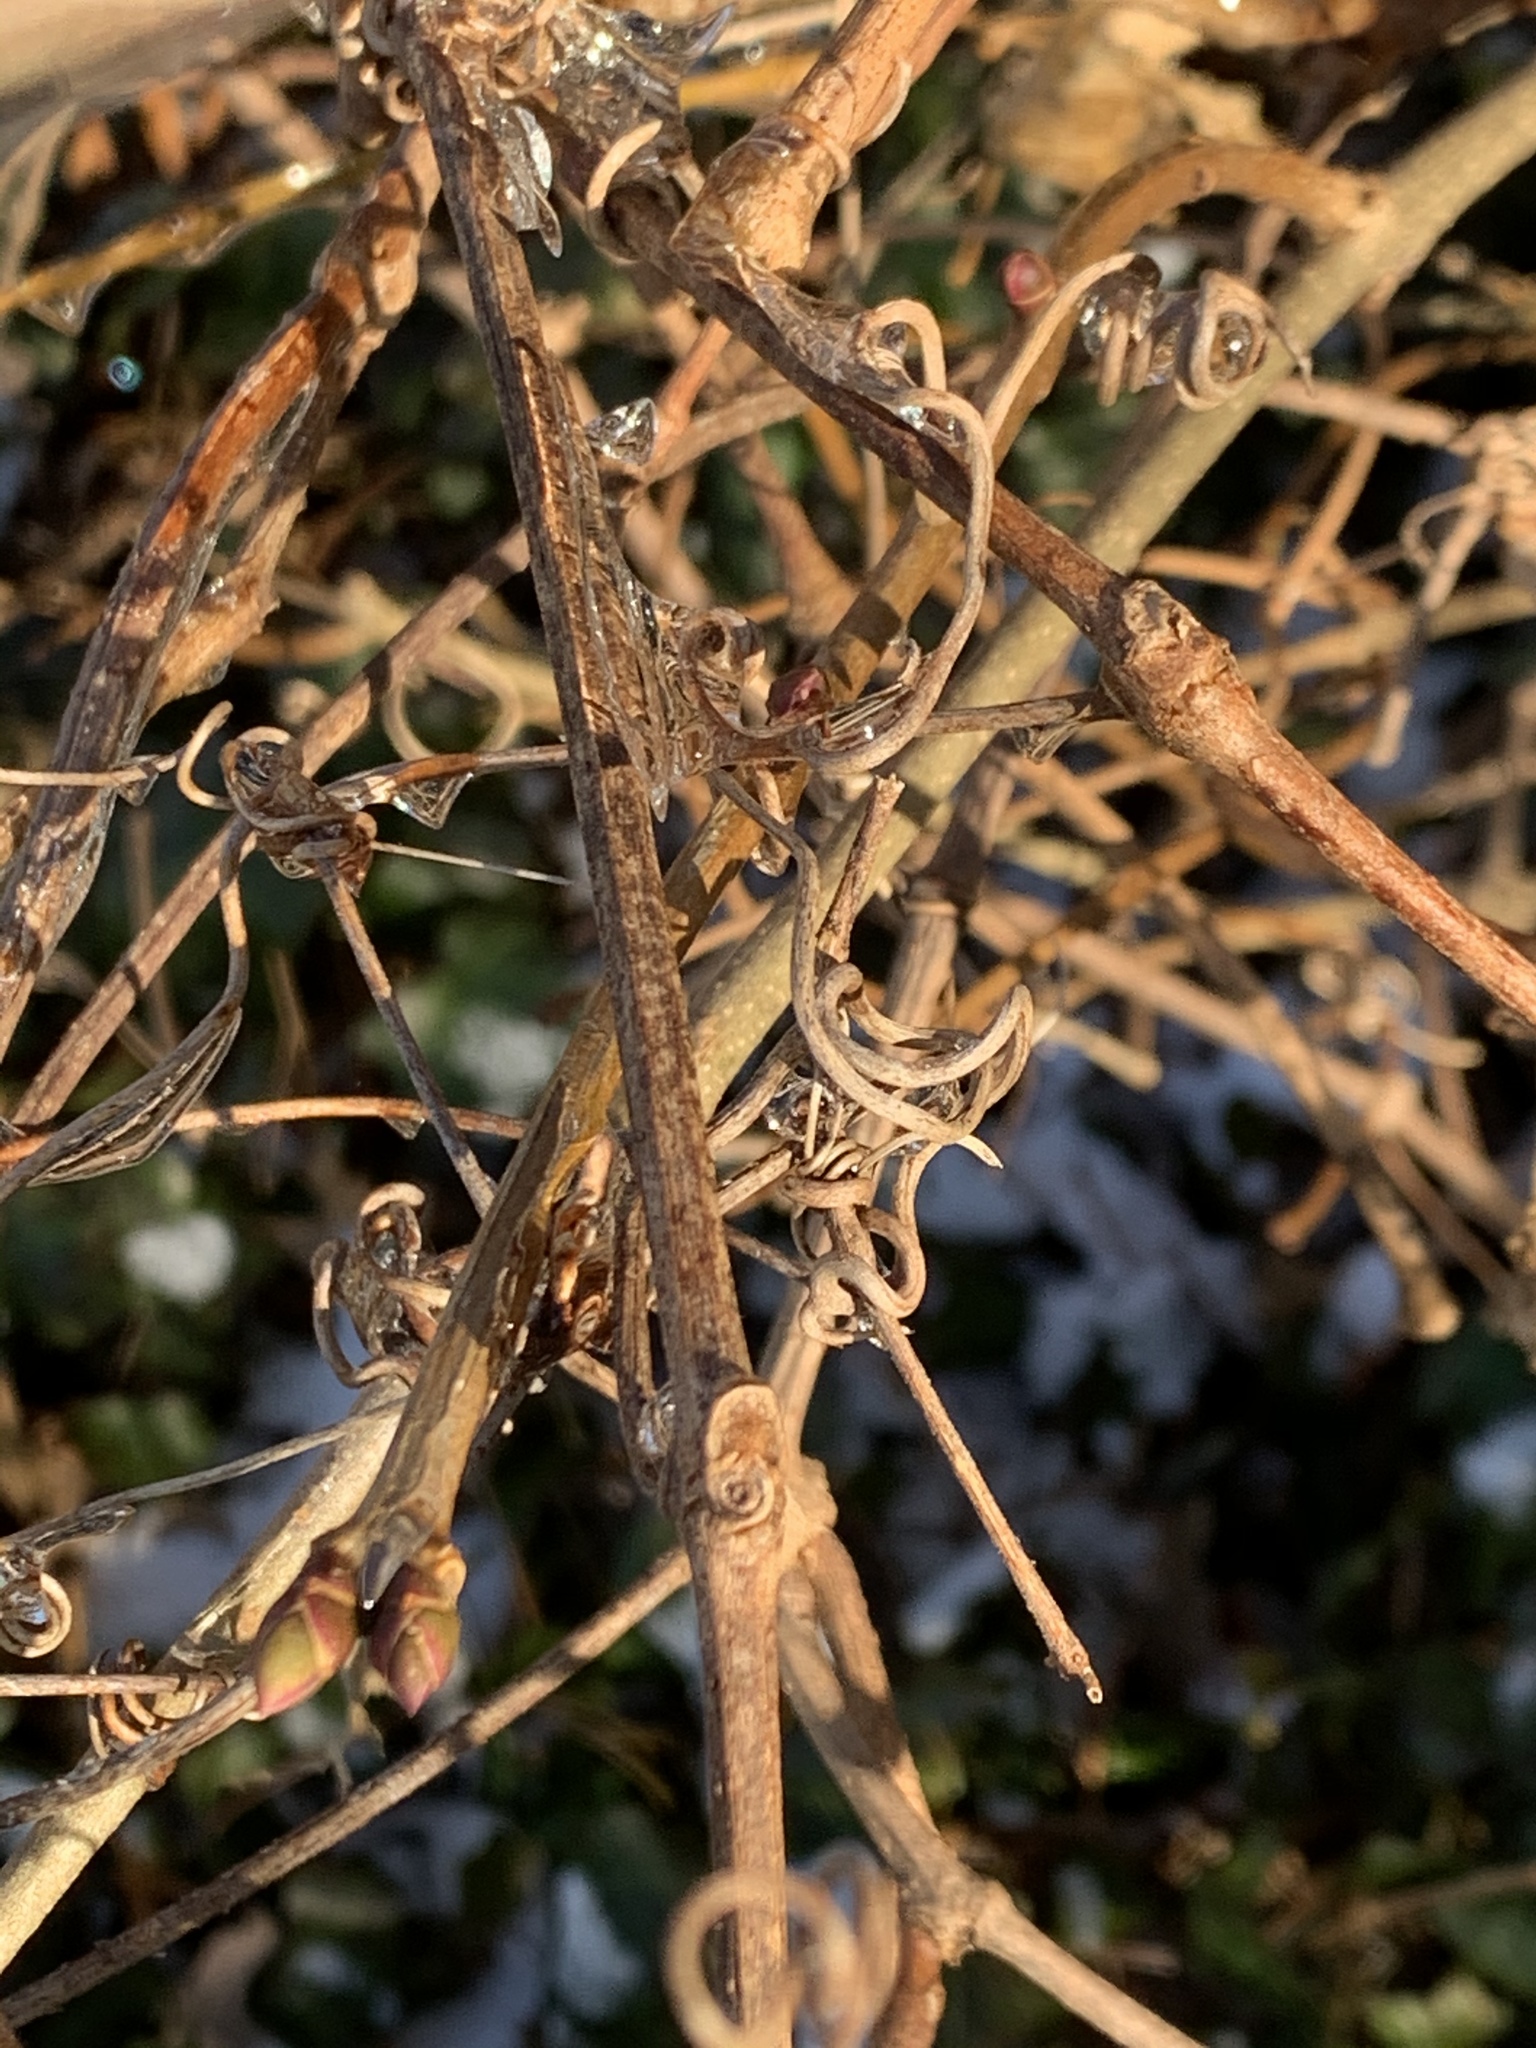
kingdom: Plantae
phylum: Tracheophyta
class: Magnoliopsida
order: Vitales
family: Vitaceae
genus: Ampelopsis
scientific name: Ampelopsis glandulosa
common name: Amur peppervine
